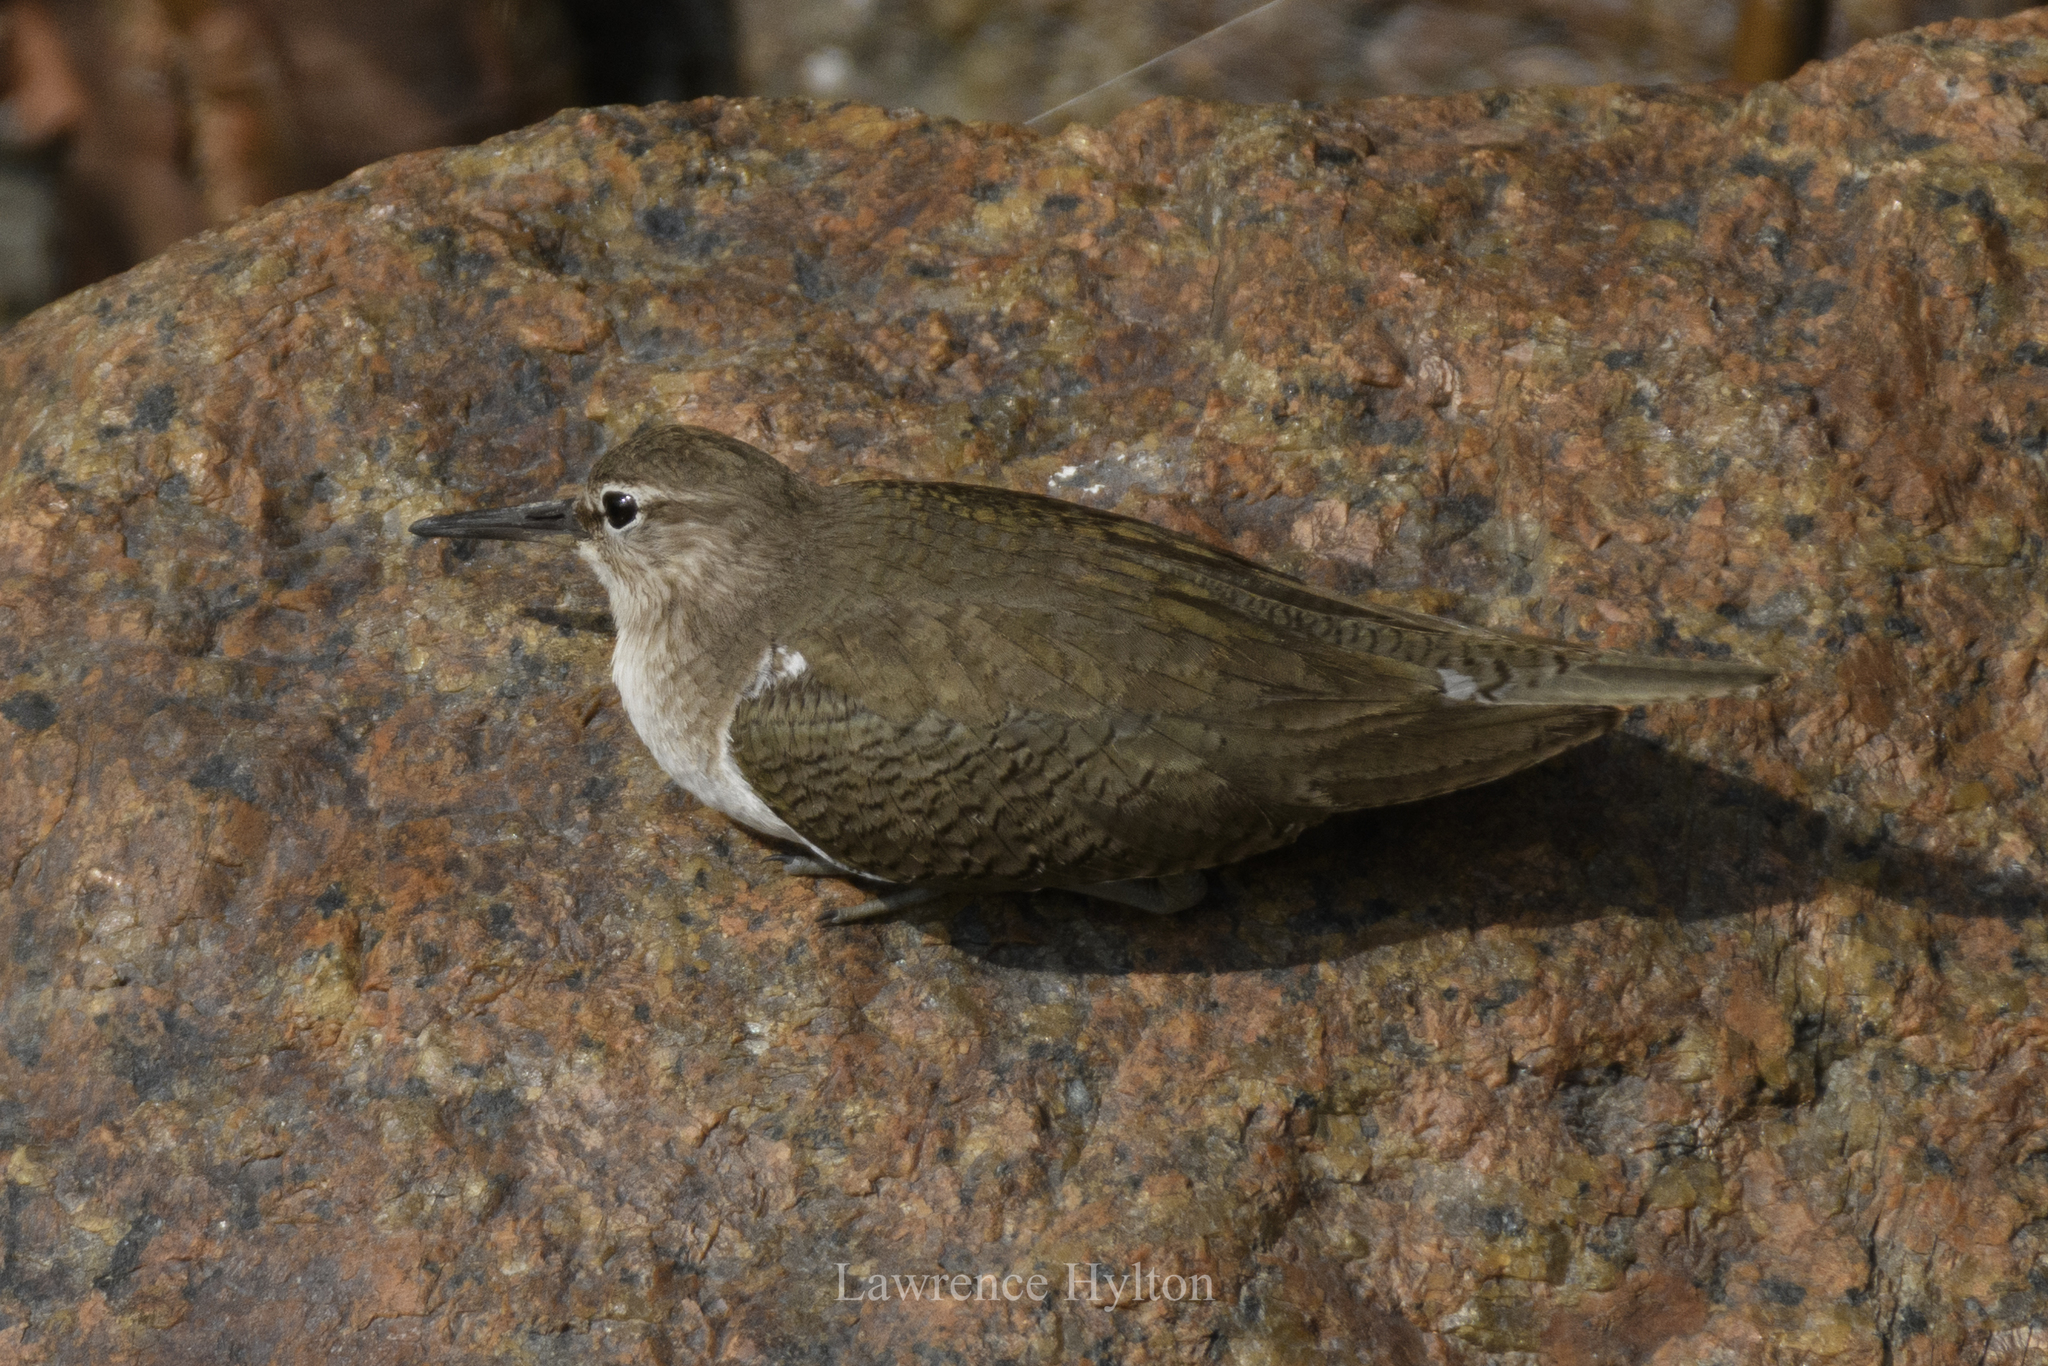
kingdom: Animalia
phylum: Chordata
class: Aves
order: Charadriiformes
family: Scolopacidae
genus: Actitis
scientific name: Actitis hypoleucos
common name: Common sandpiper
